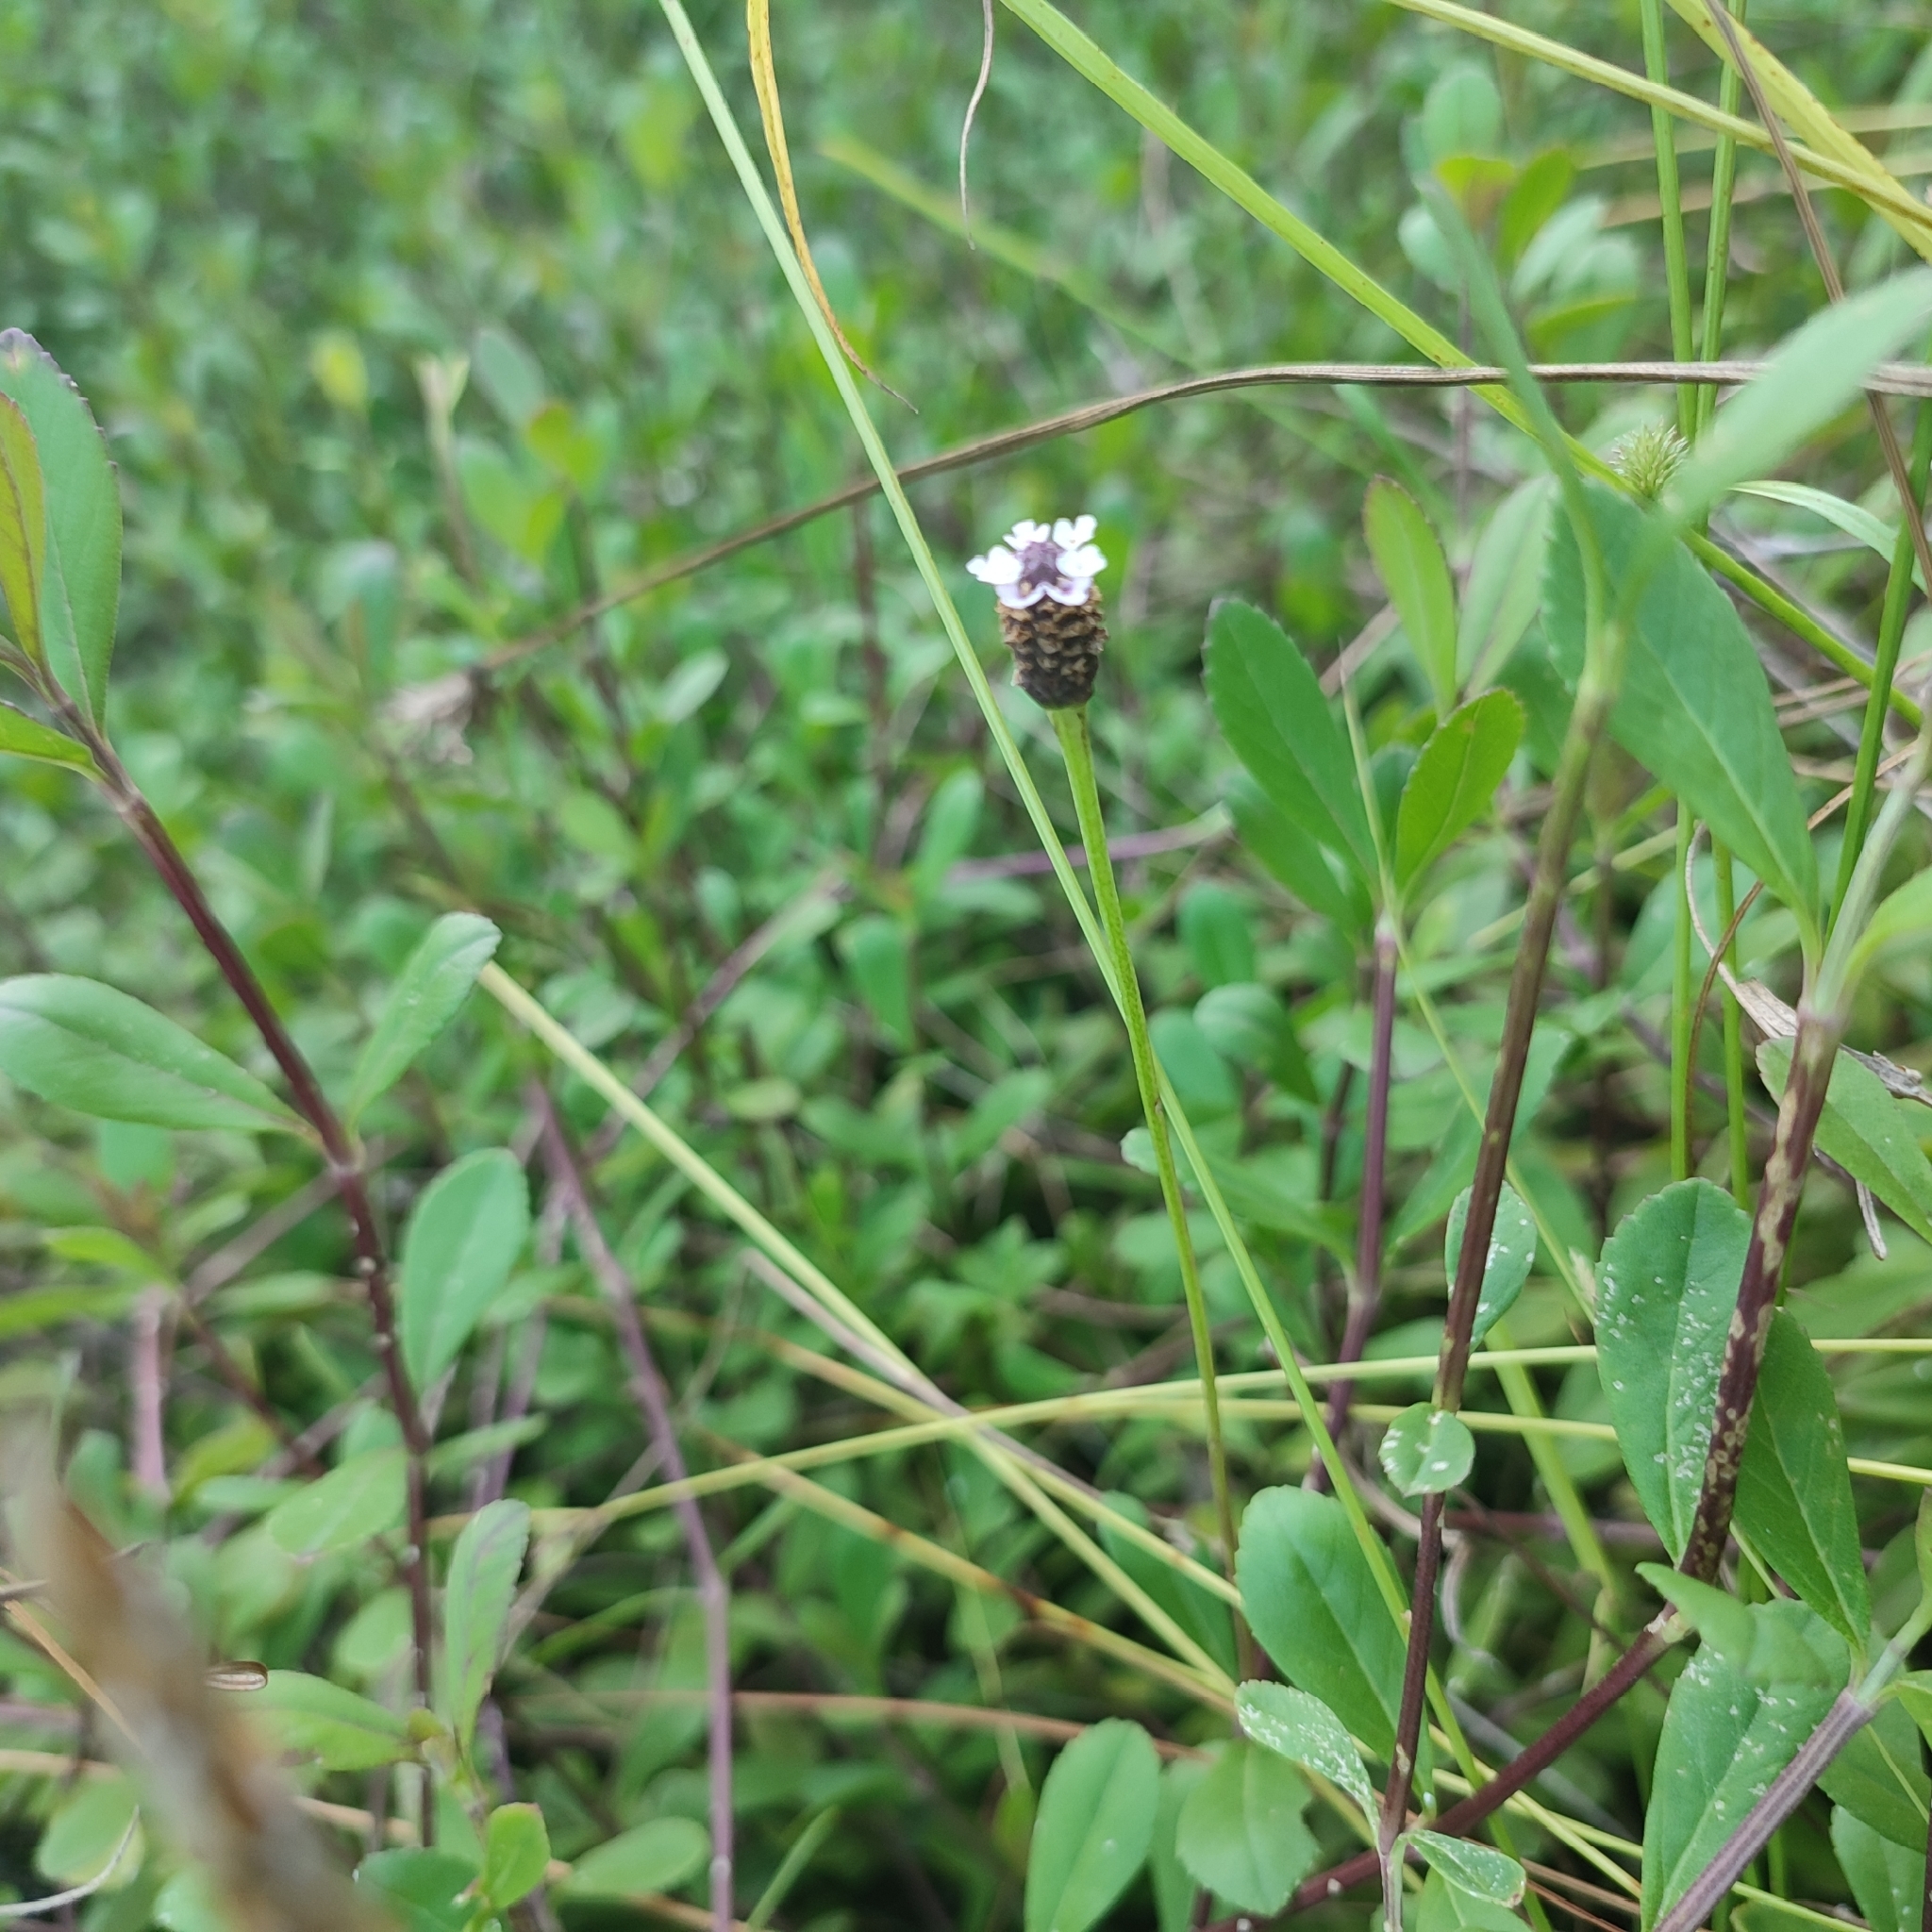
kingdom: Plantae
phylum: Tracheophyta
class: Magnoliopsida
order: Lamiales
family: Verbenaceae
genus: Phyla
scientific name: Phyla nodiflora
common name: Frogfruit
